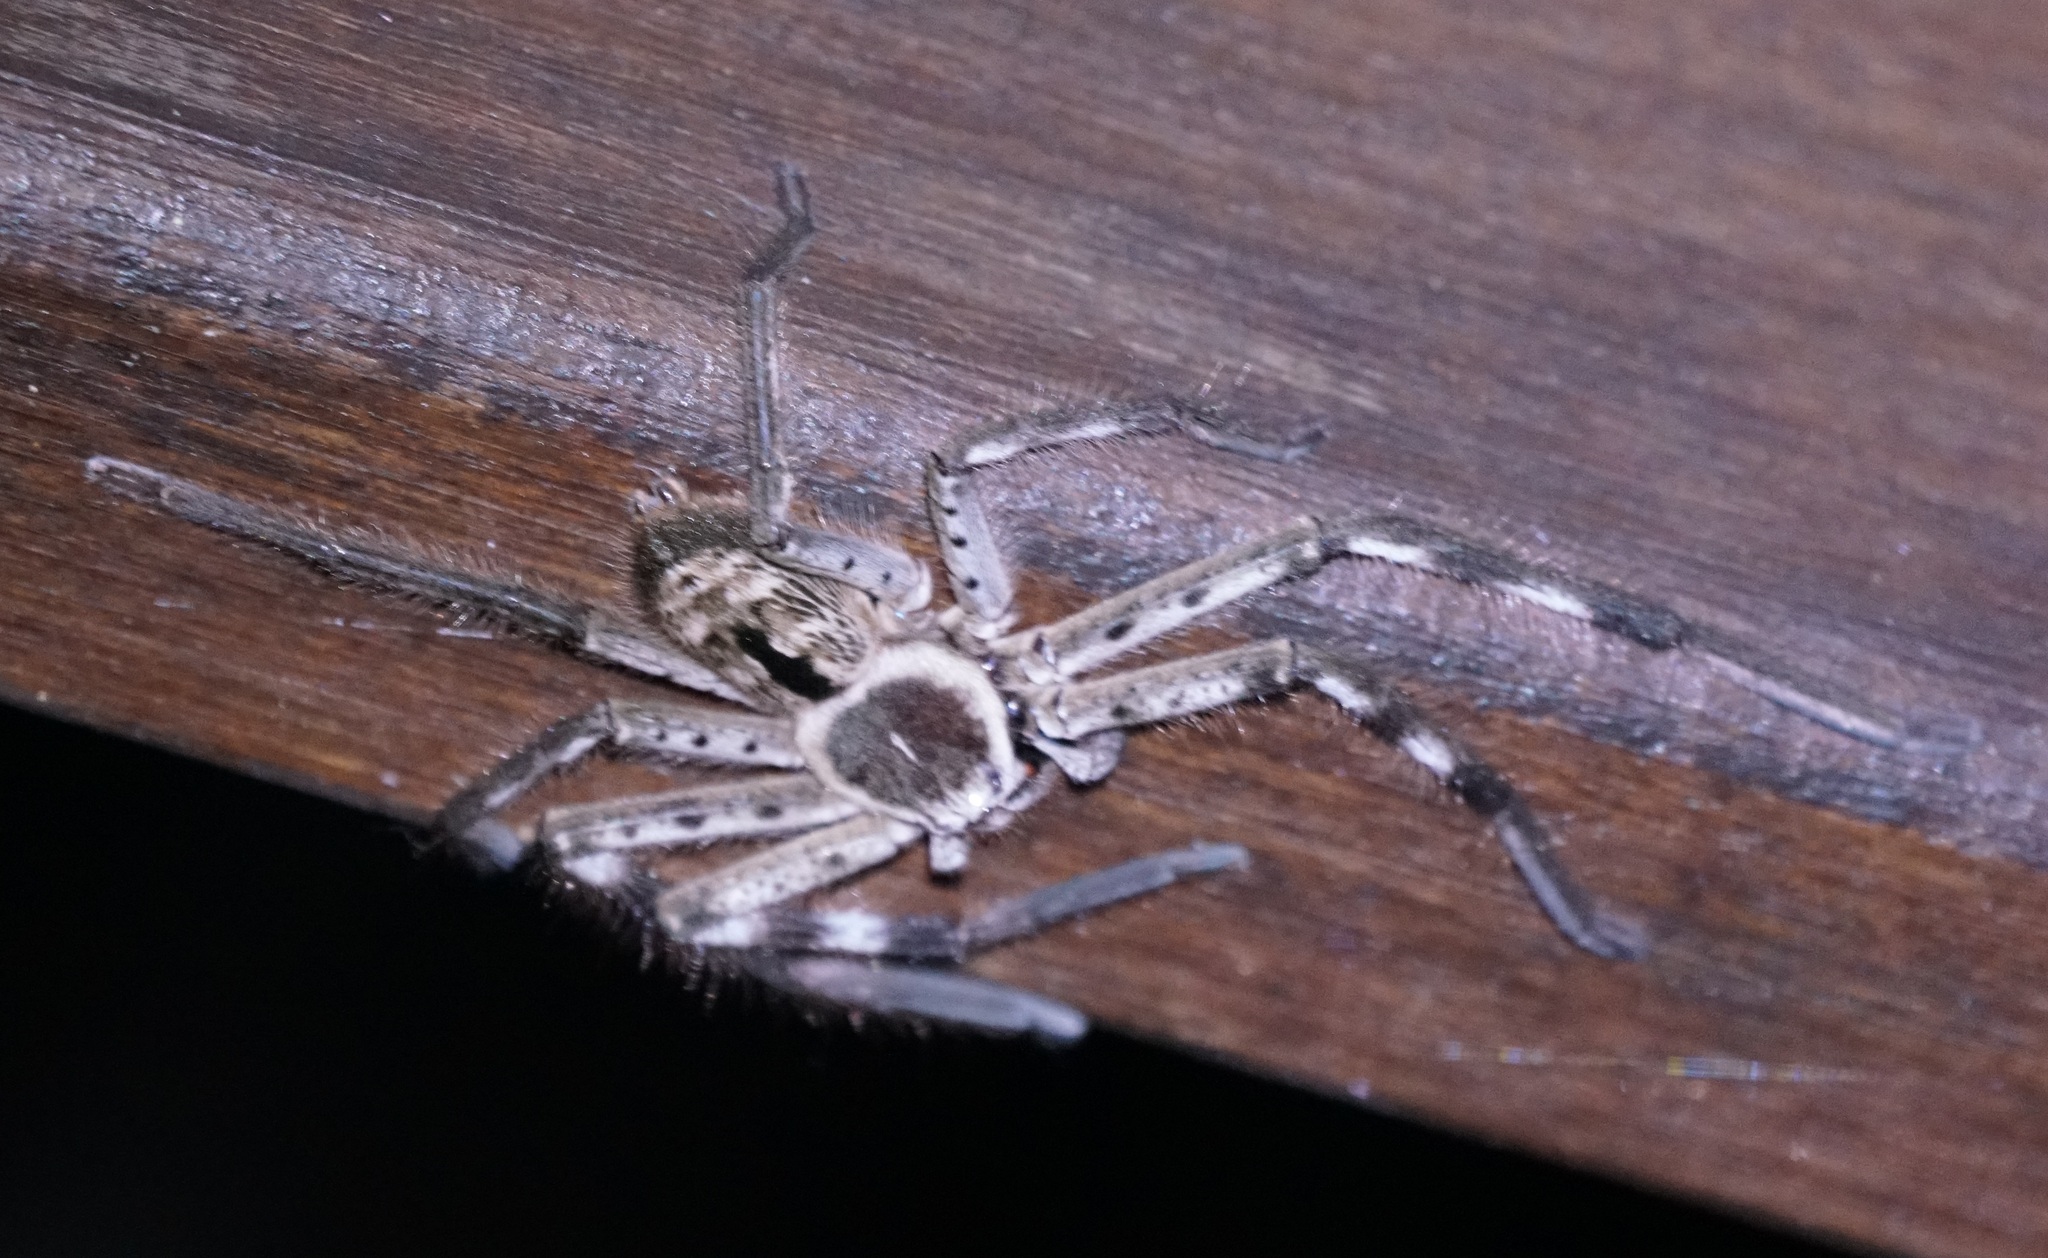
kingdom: Animalia
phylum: Arthropoda
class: Arachnida
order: Araneae
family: Sparassidae
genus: Holconia
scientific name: Holconia immanis
